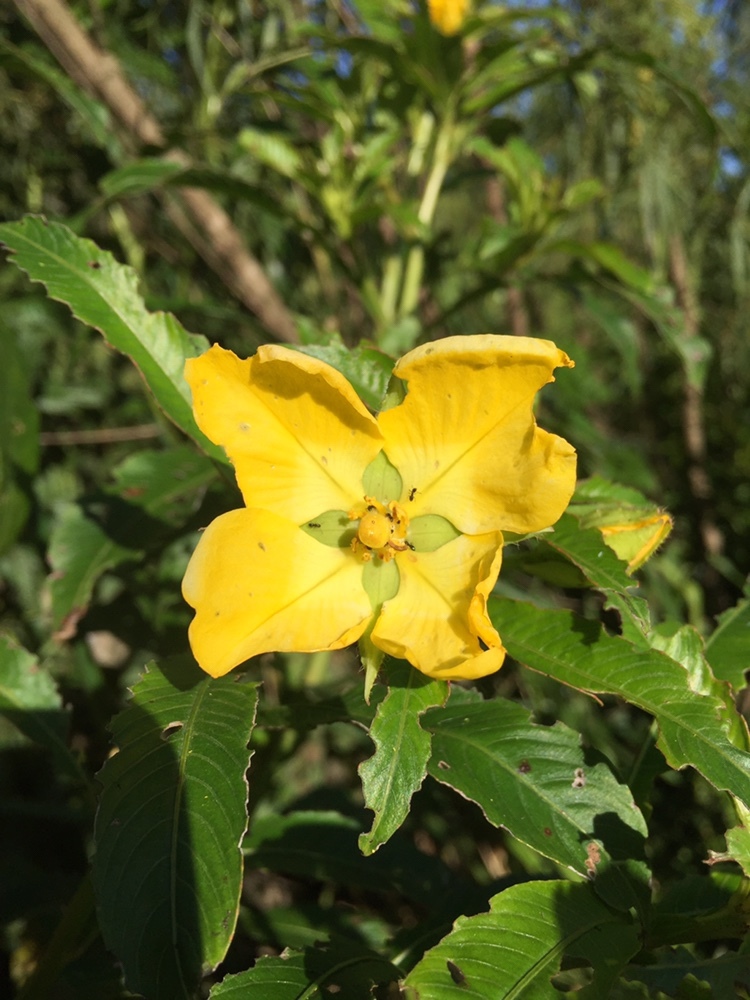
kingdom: Plantae
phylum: Tracheophyta
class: Magnoliopsida
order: Myrtales
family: Onagraceae
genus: Ludwigia
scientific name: Ludwigia bonariensis
